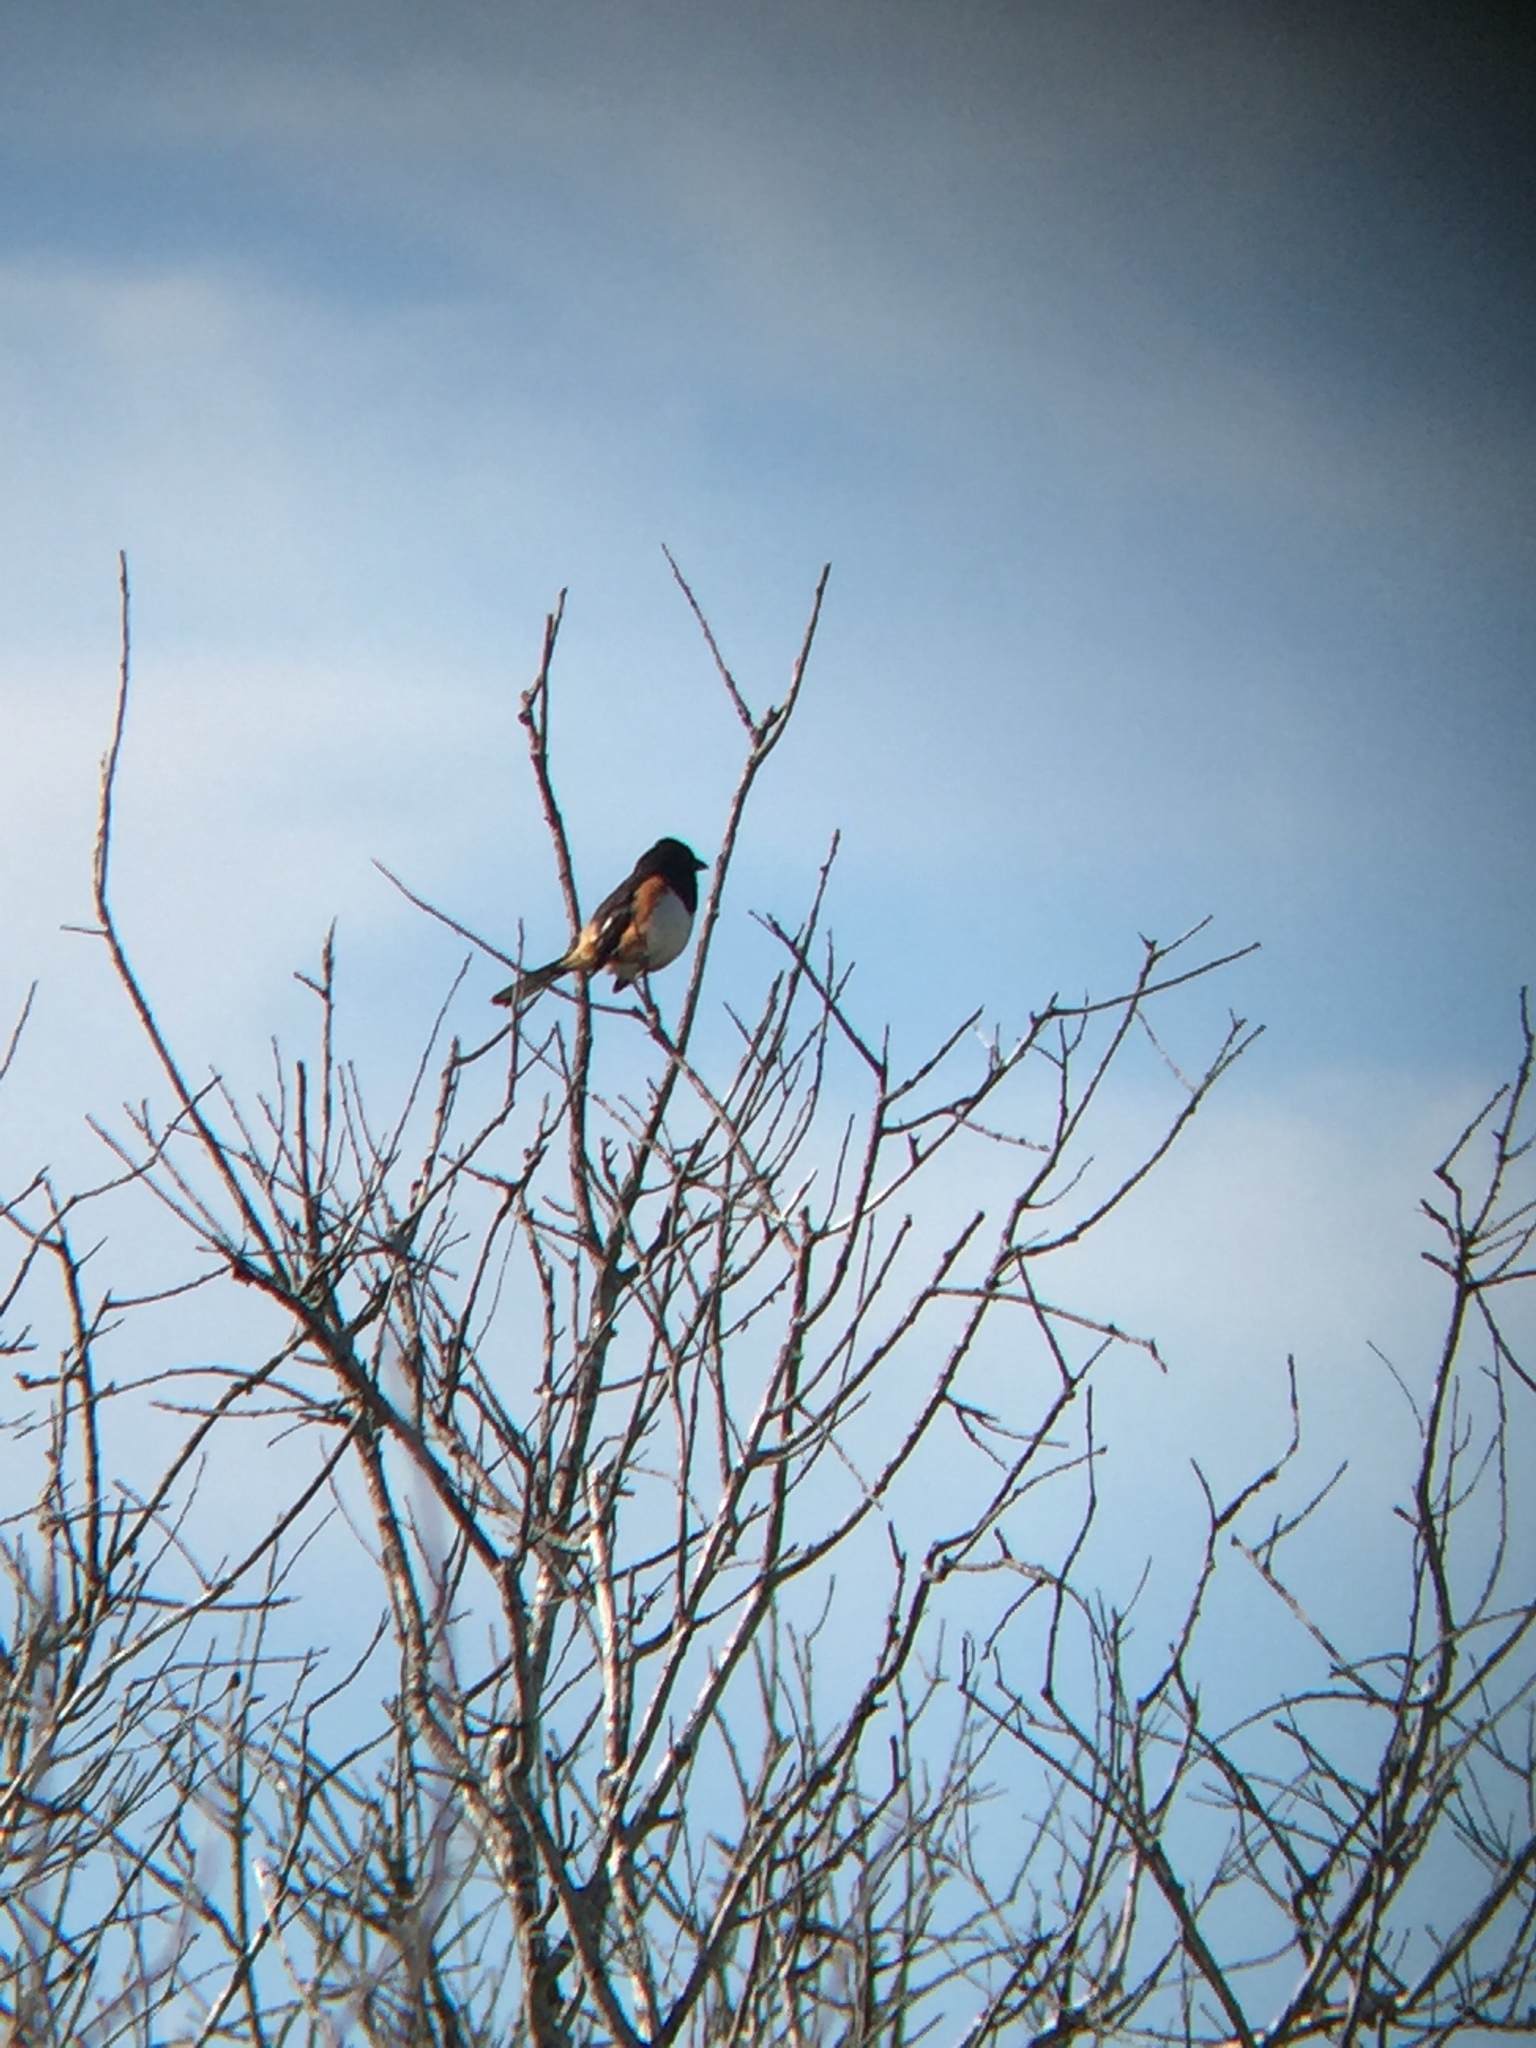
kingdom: Animalia
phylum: Chordata
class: Aves
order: Passeriformes
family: Passerellidae
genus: Pipilo
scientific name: Pipilo erythrophthalmus
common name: Eastern towhee
